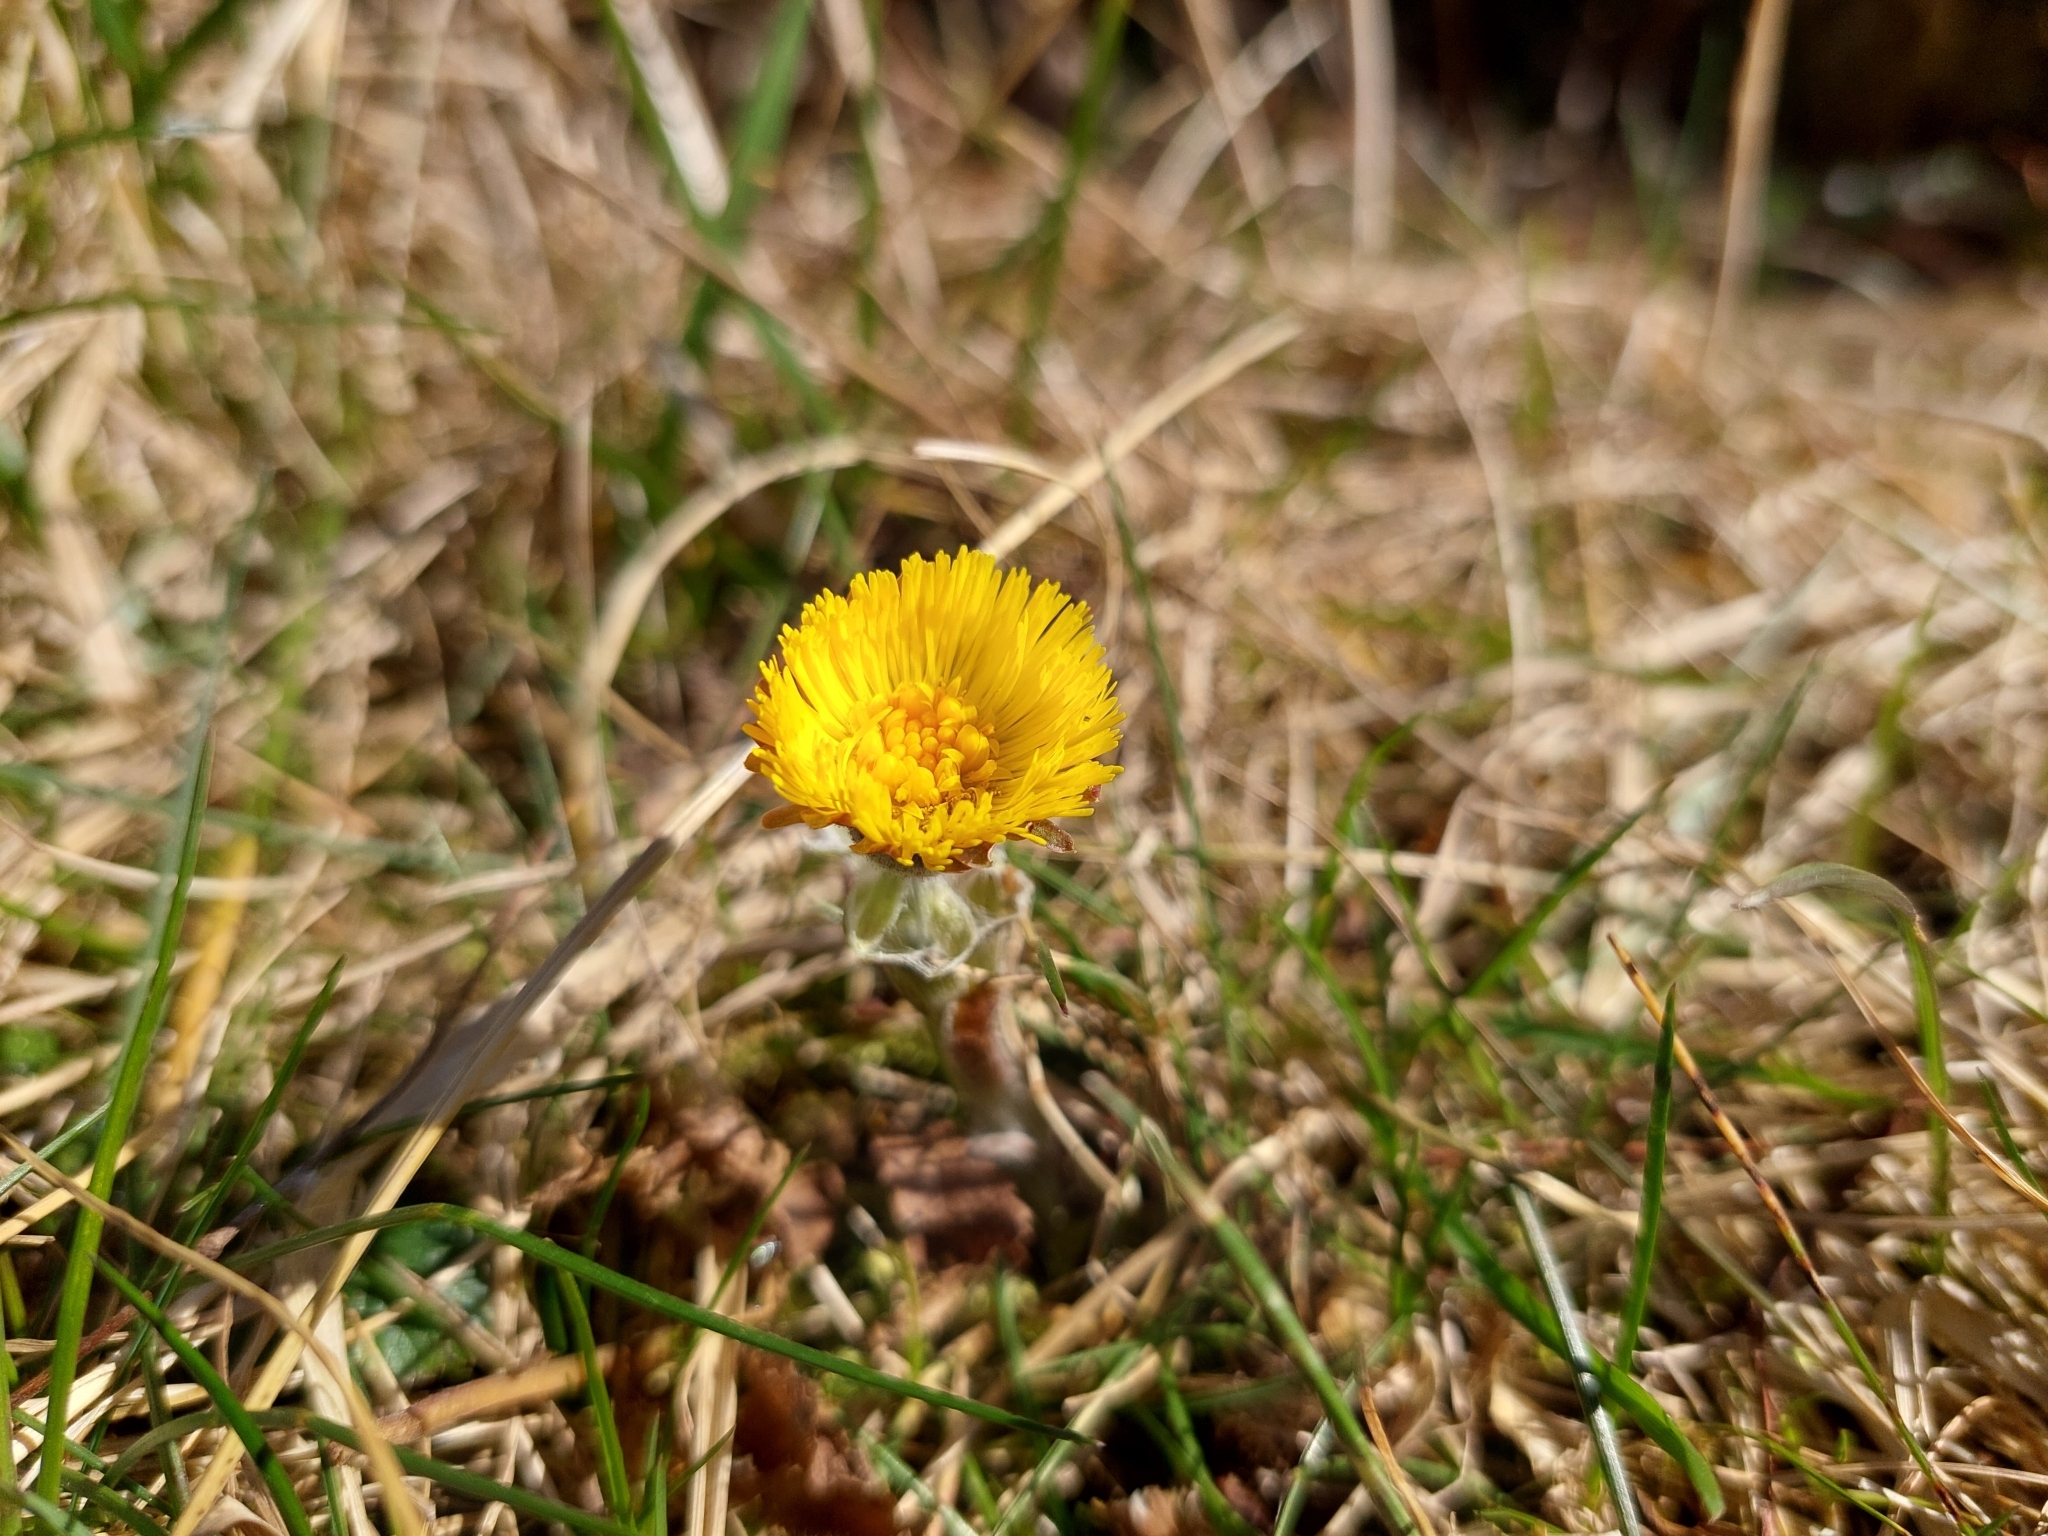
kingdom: Plantae
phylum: Tracheophyta
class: Magnoliopsida
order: Asterales
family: Asteraceae
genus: Tussilago
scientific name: Tussilago farfara
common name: Coltsfoot
